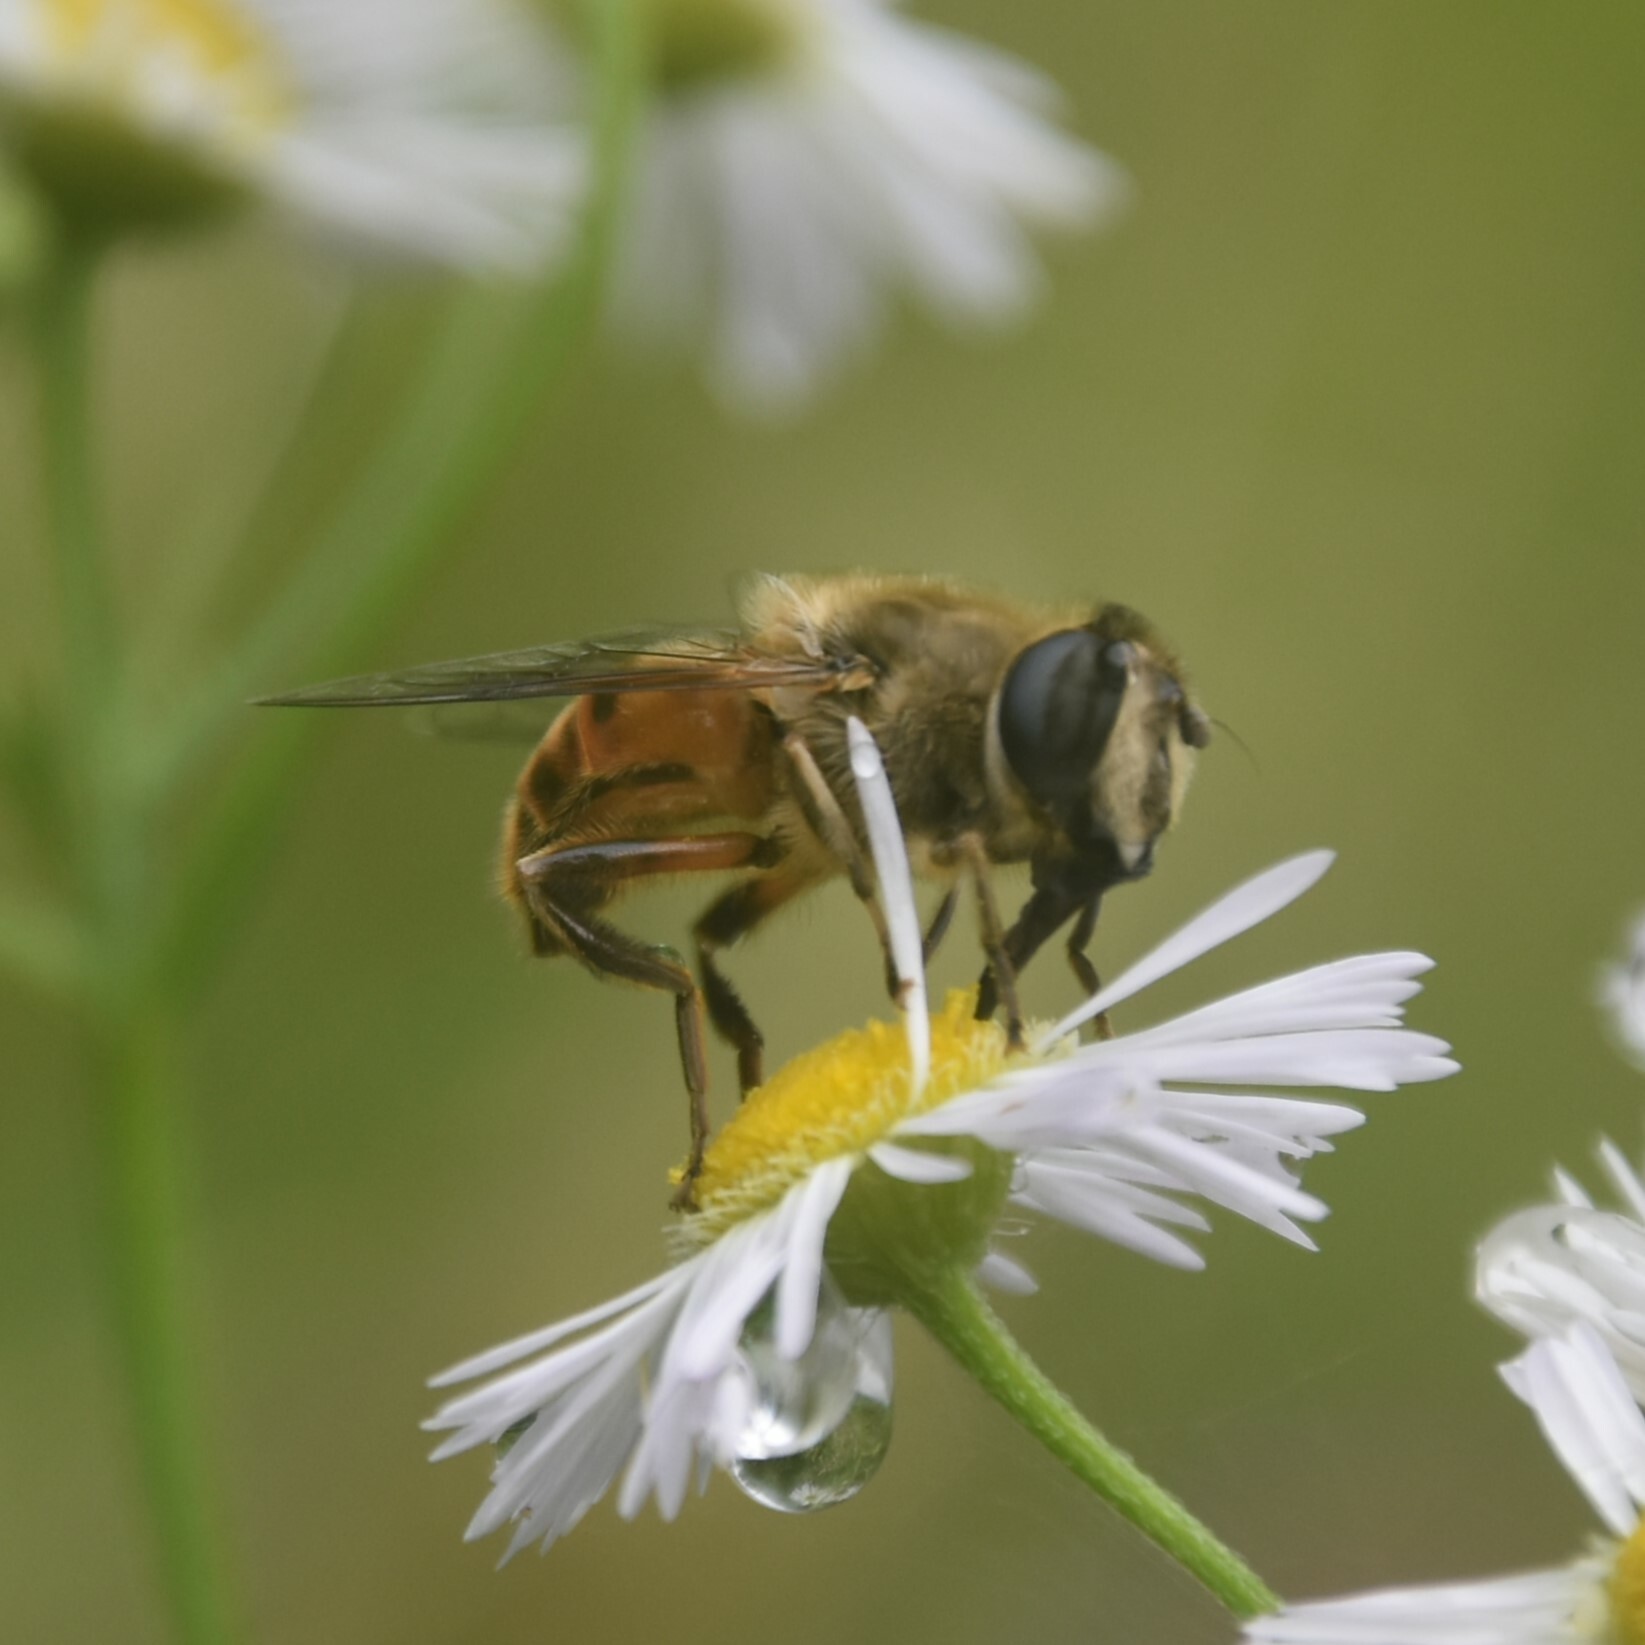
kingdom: Animalia
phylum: Arthropoda
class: Insecta
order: Diptera
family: Syrphidae
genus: Eristalis
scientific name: Eristalis tenax
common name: Drone fly
